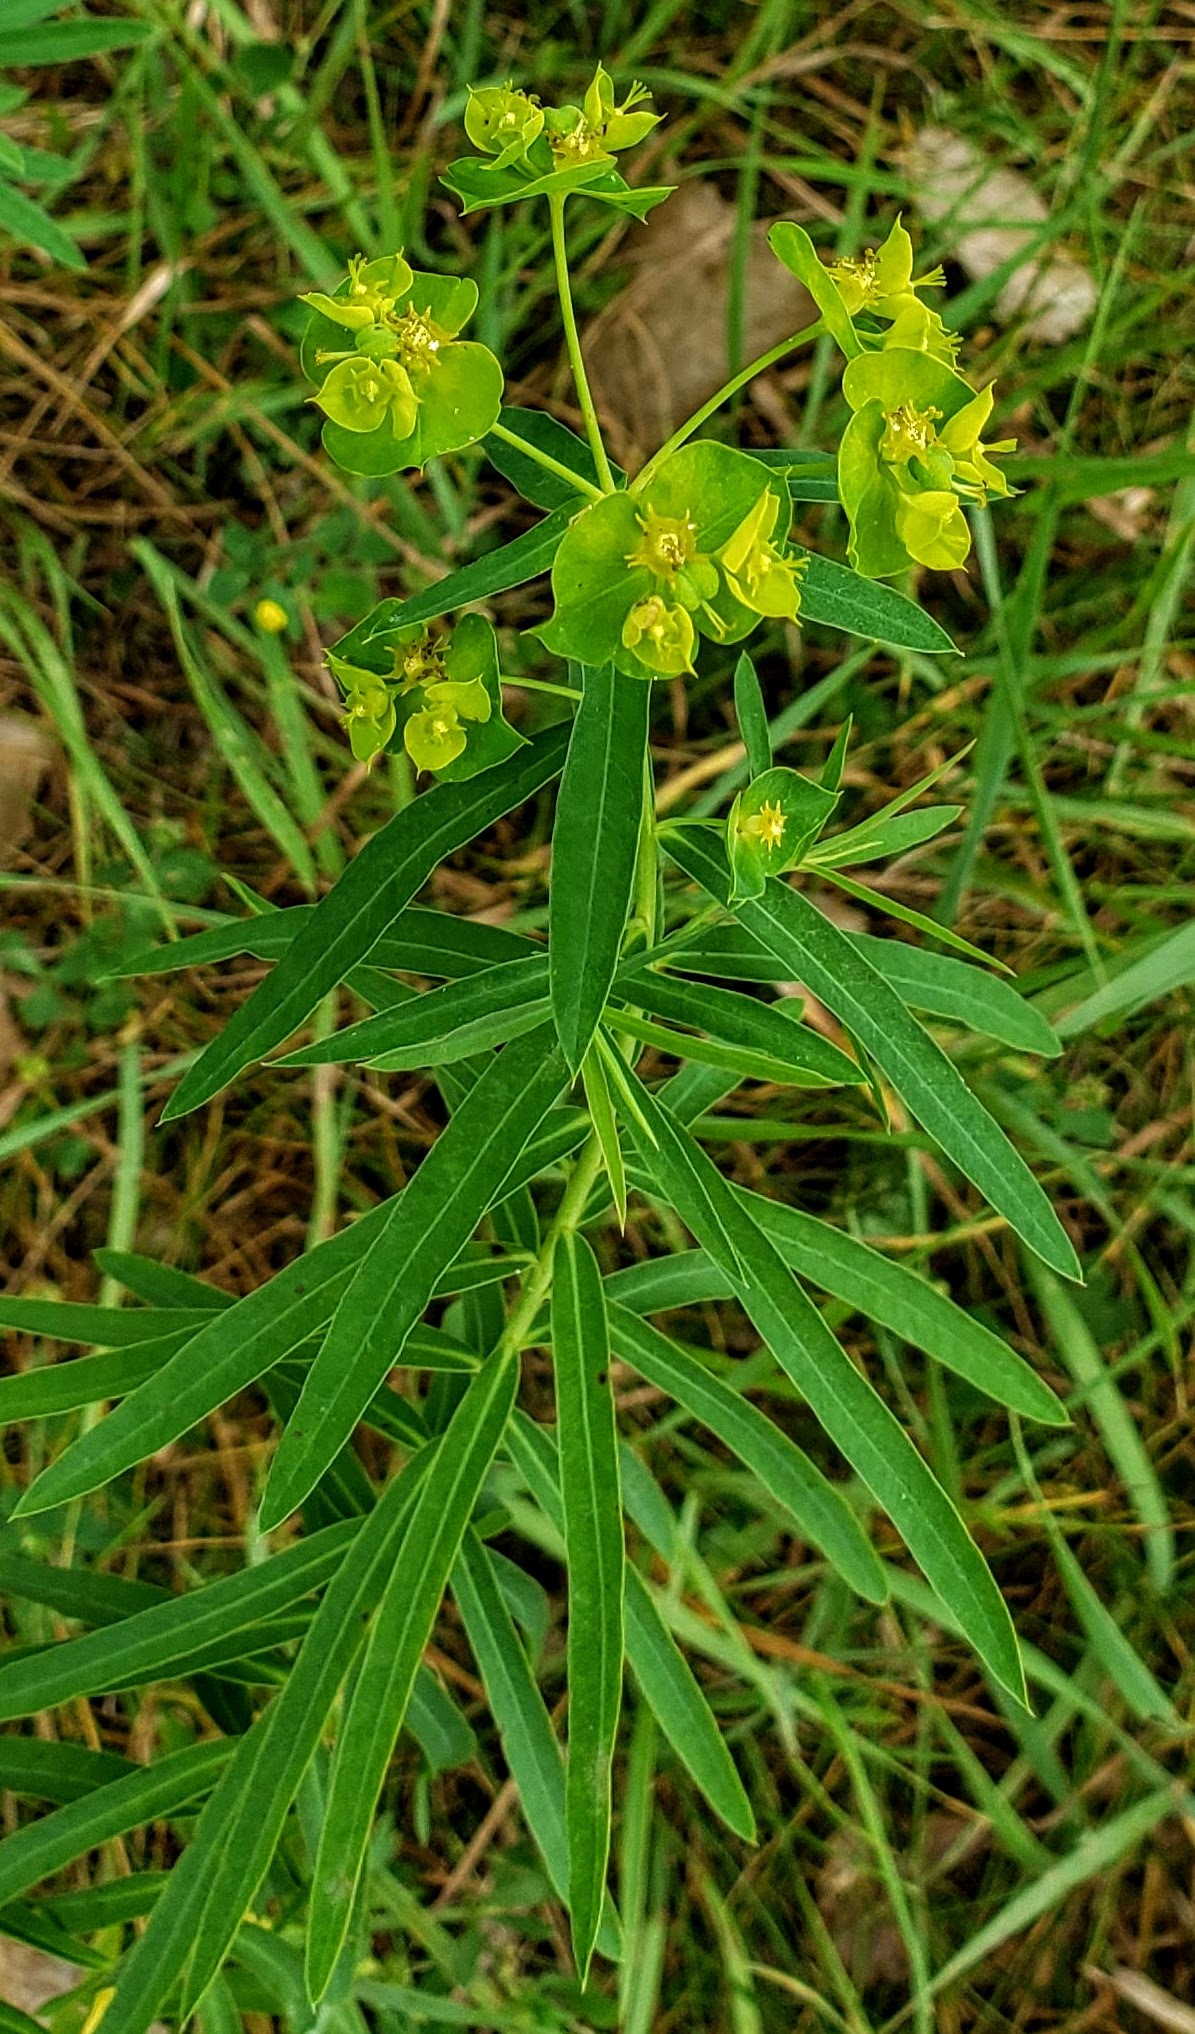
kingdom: Plantae
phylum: Tracheophyta
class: Magnoliopsida
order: Malpighiales
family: Euphorbiaceae
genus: Euphorbia
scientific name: Euphorbia virgata
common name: Leafy spurge
